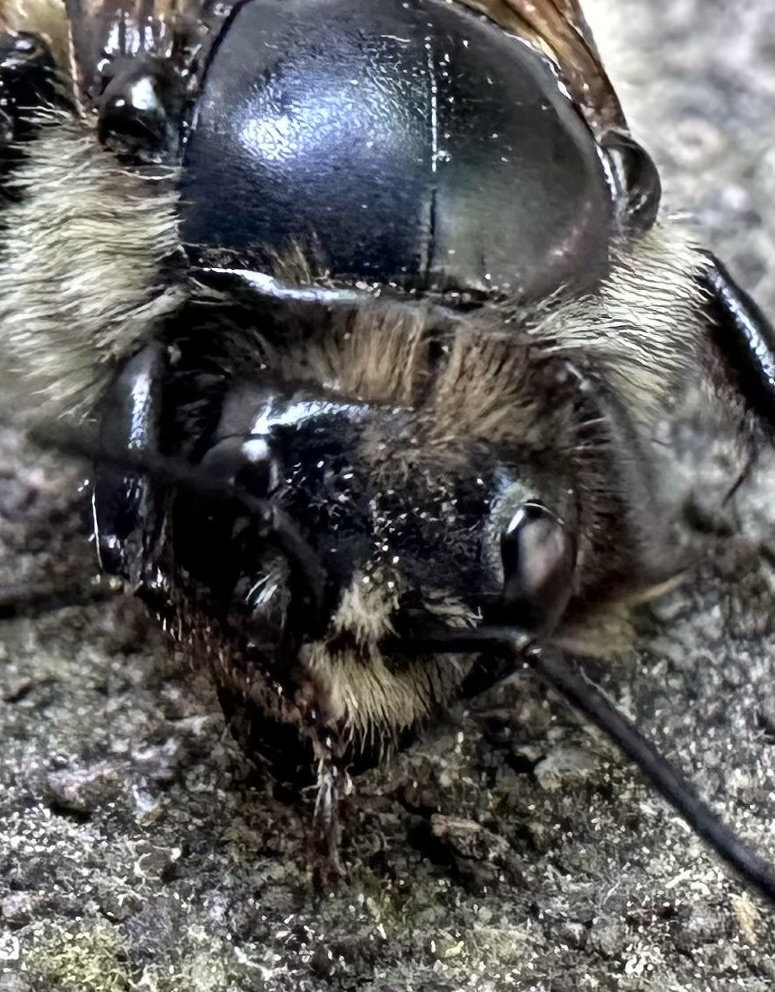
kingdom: Animalia
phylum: Arthropoda
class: Insecta
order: Hymenoptera
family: Apidae
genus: Bombus
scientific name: Bombus melanopygus
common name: Black tail bumble bee
